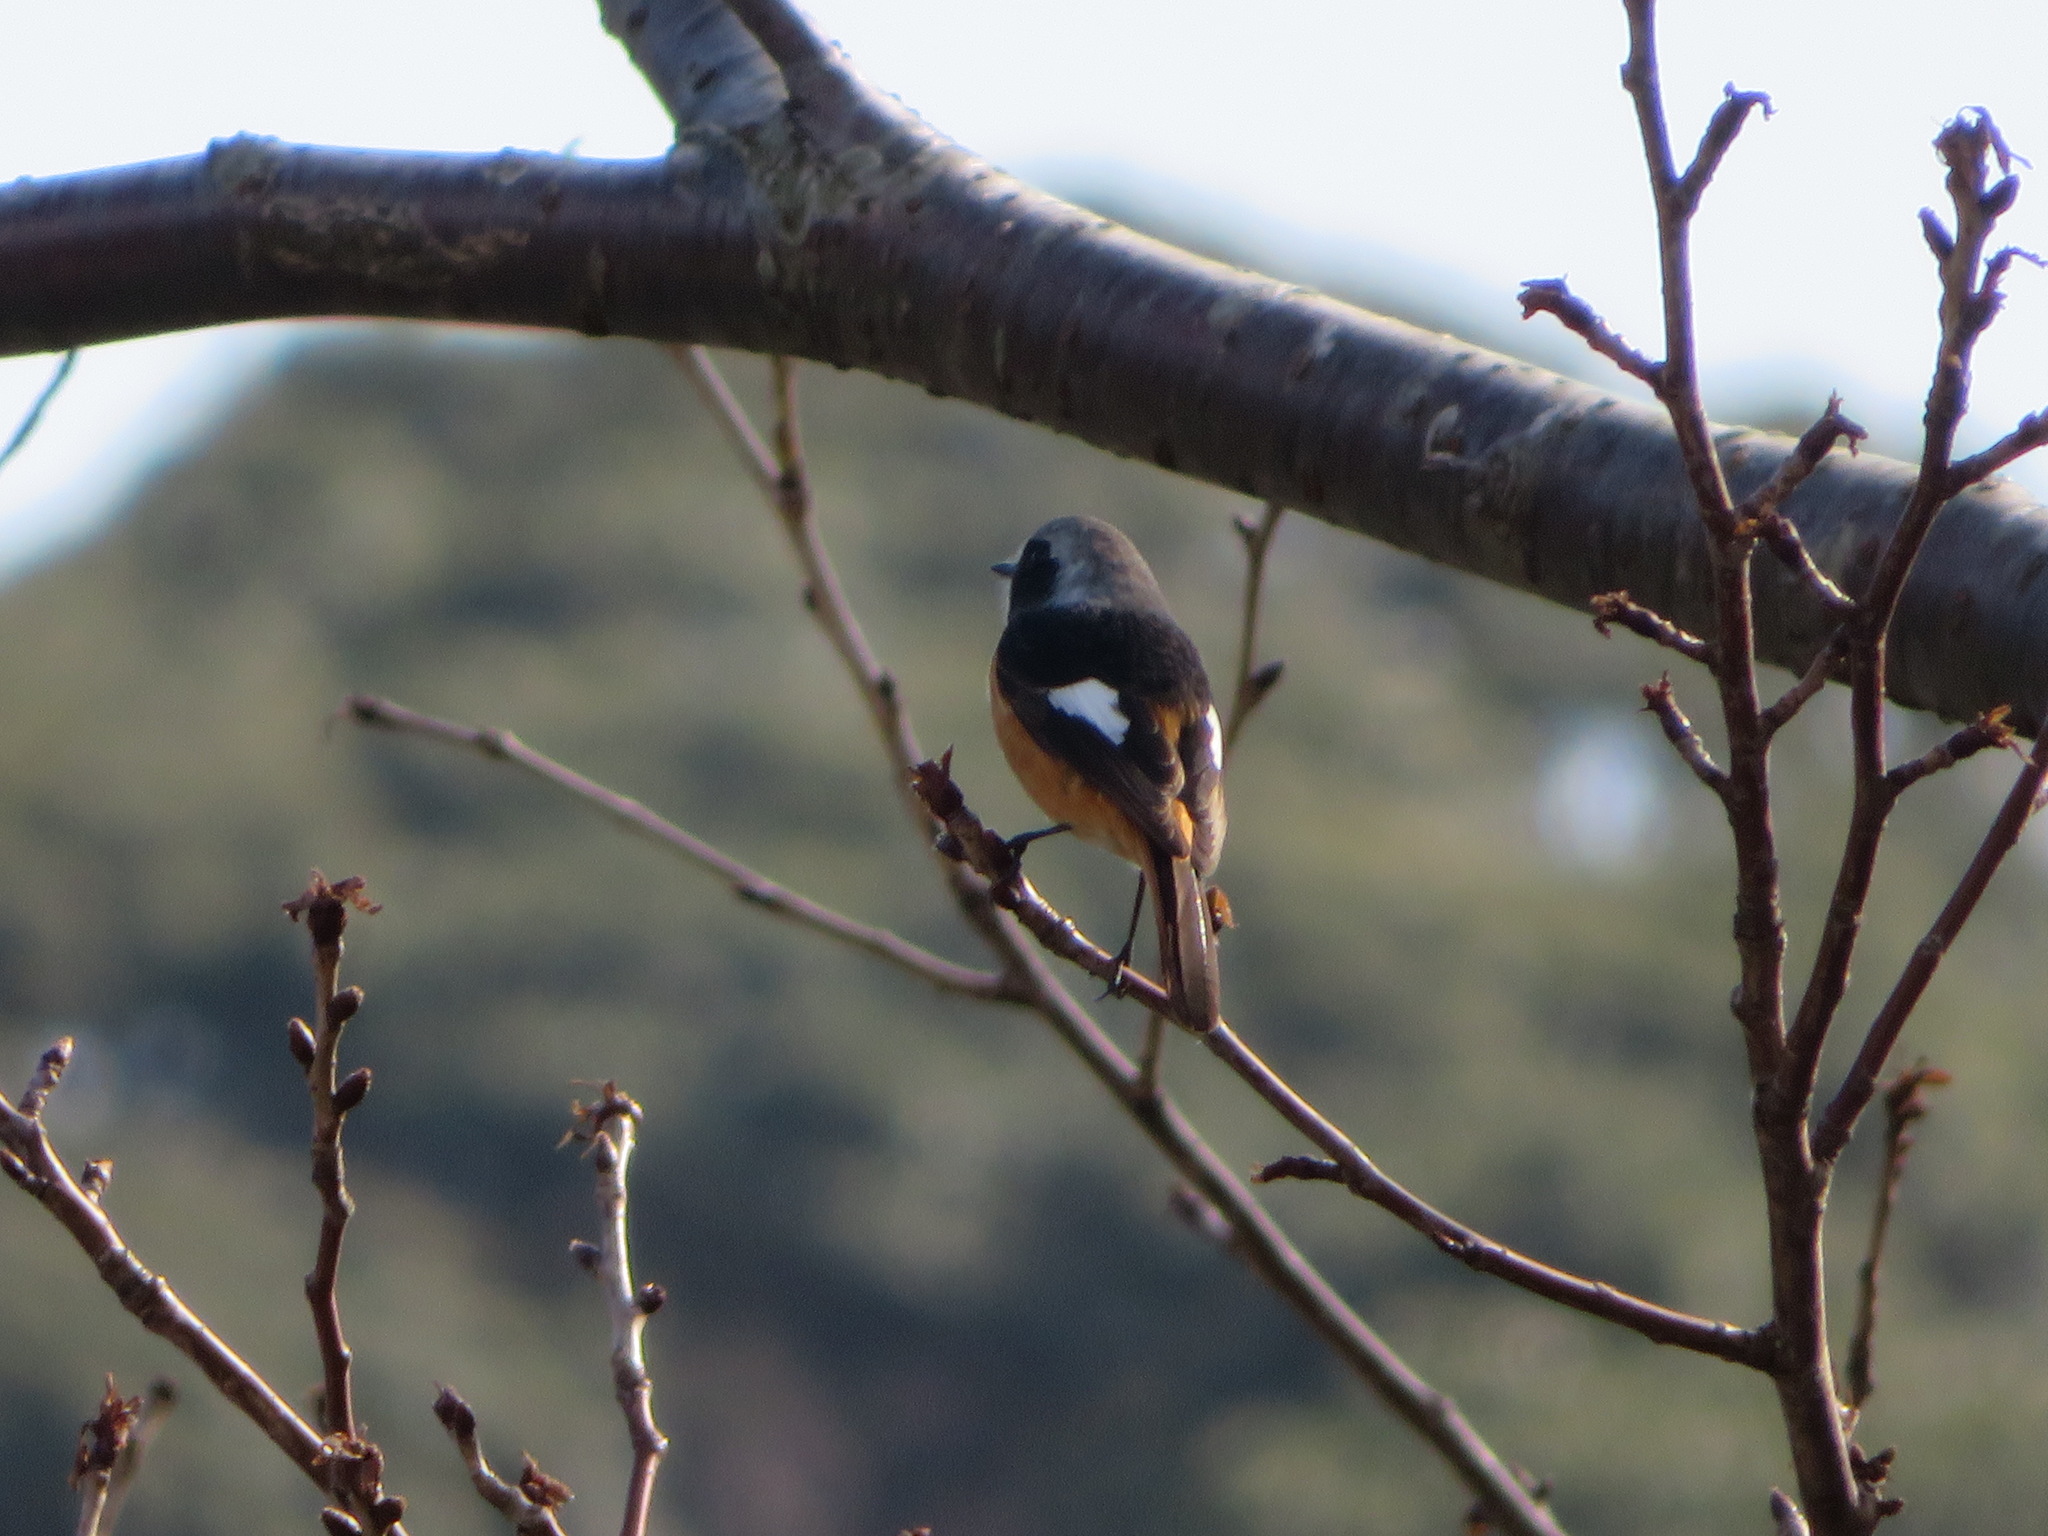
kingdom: Animalia
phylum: Chordata
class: Aves
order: Passeriformes
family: Muscicapidae
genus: Phoenicurus
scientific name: Phoenicurus auroreus
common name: Daurian redstart
